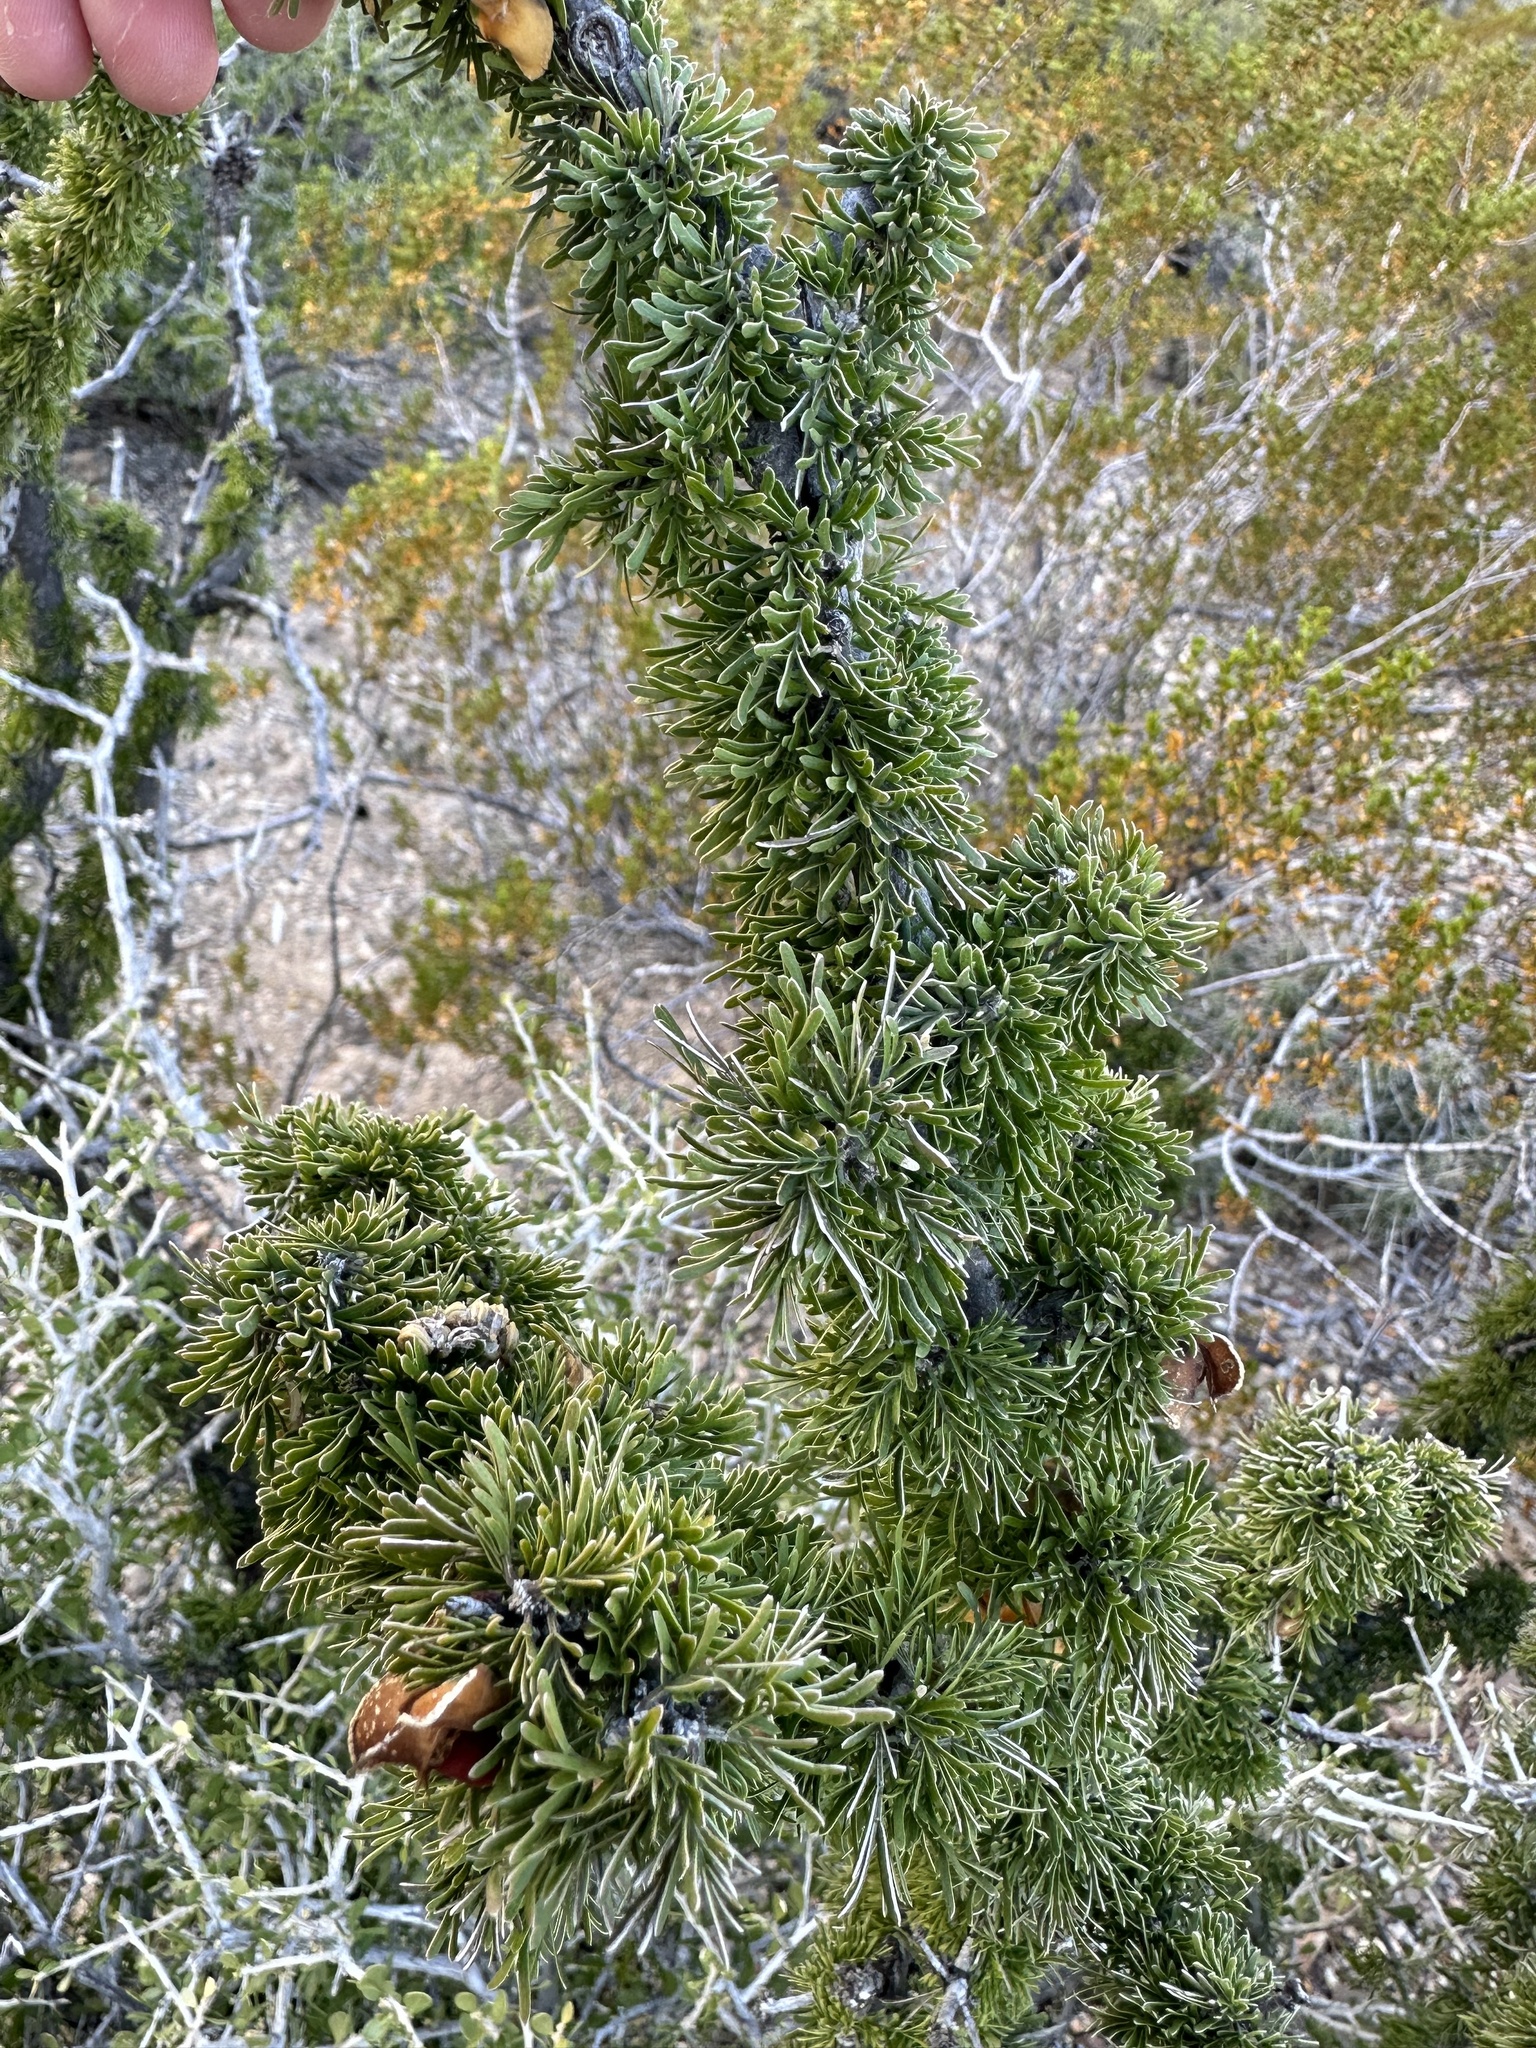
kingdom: Plantae
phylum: Tracheophyta
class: Magnoliopsida
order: Zygophyllales
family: Zygophyllaceae
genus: Porlieria
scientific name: Porlieria angustifolia
